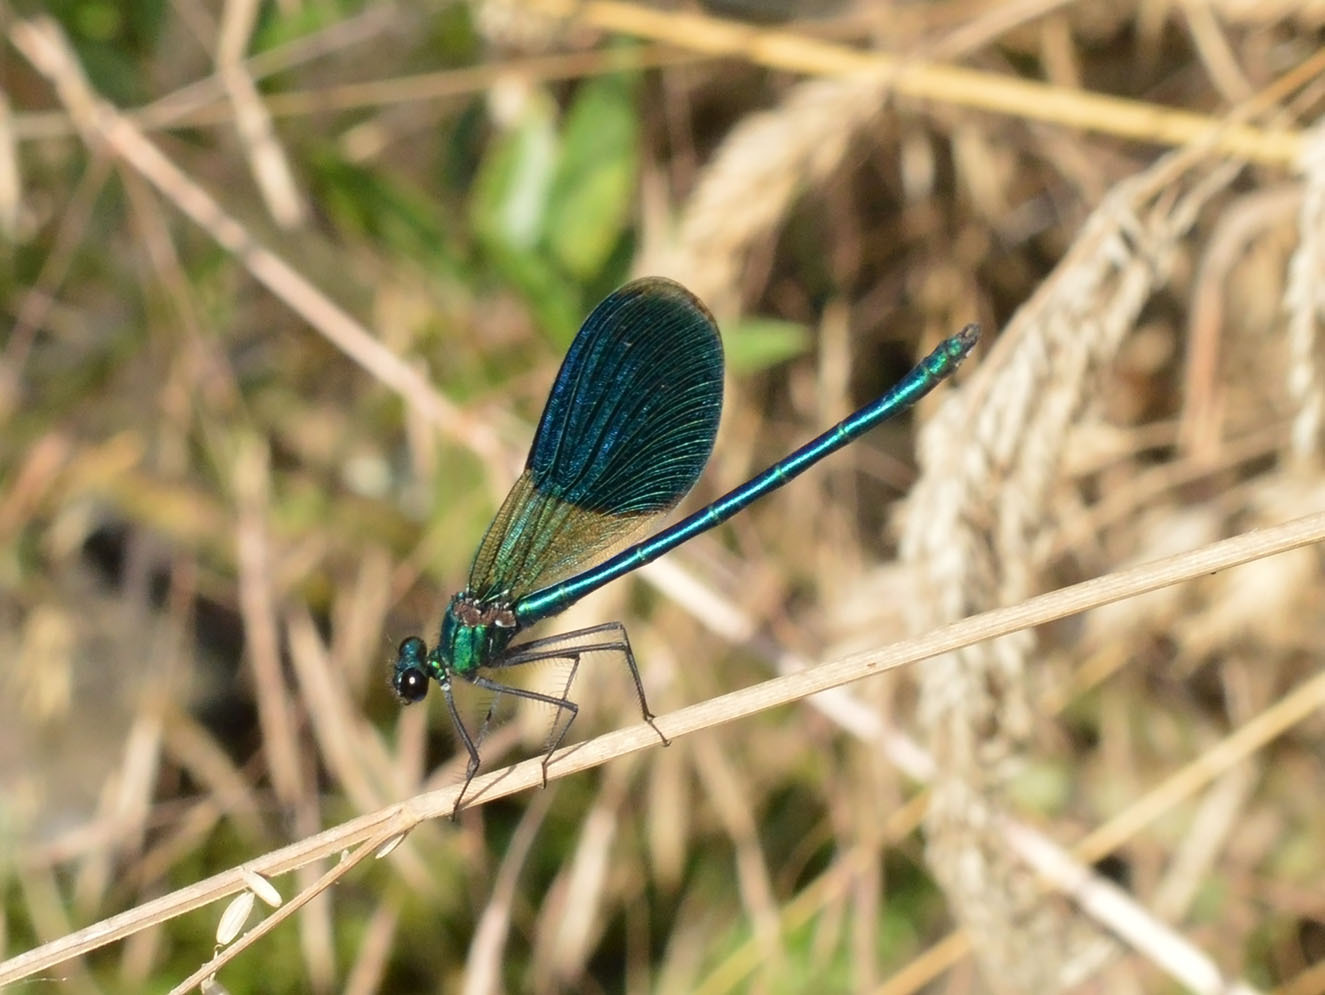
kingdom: Animalia
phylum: Arthropoda
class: Insecta
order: Odonata
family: Calopterygidae
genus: Calopteryx
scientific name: Calopteryx splendens
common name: Banded demoiselle
